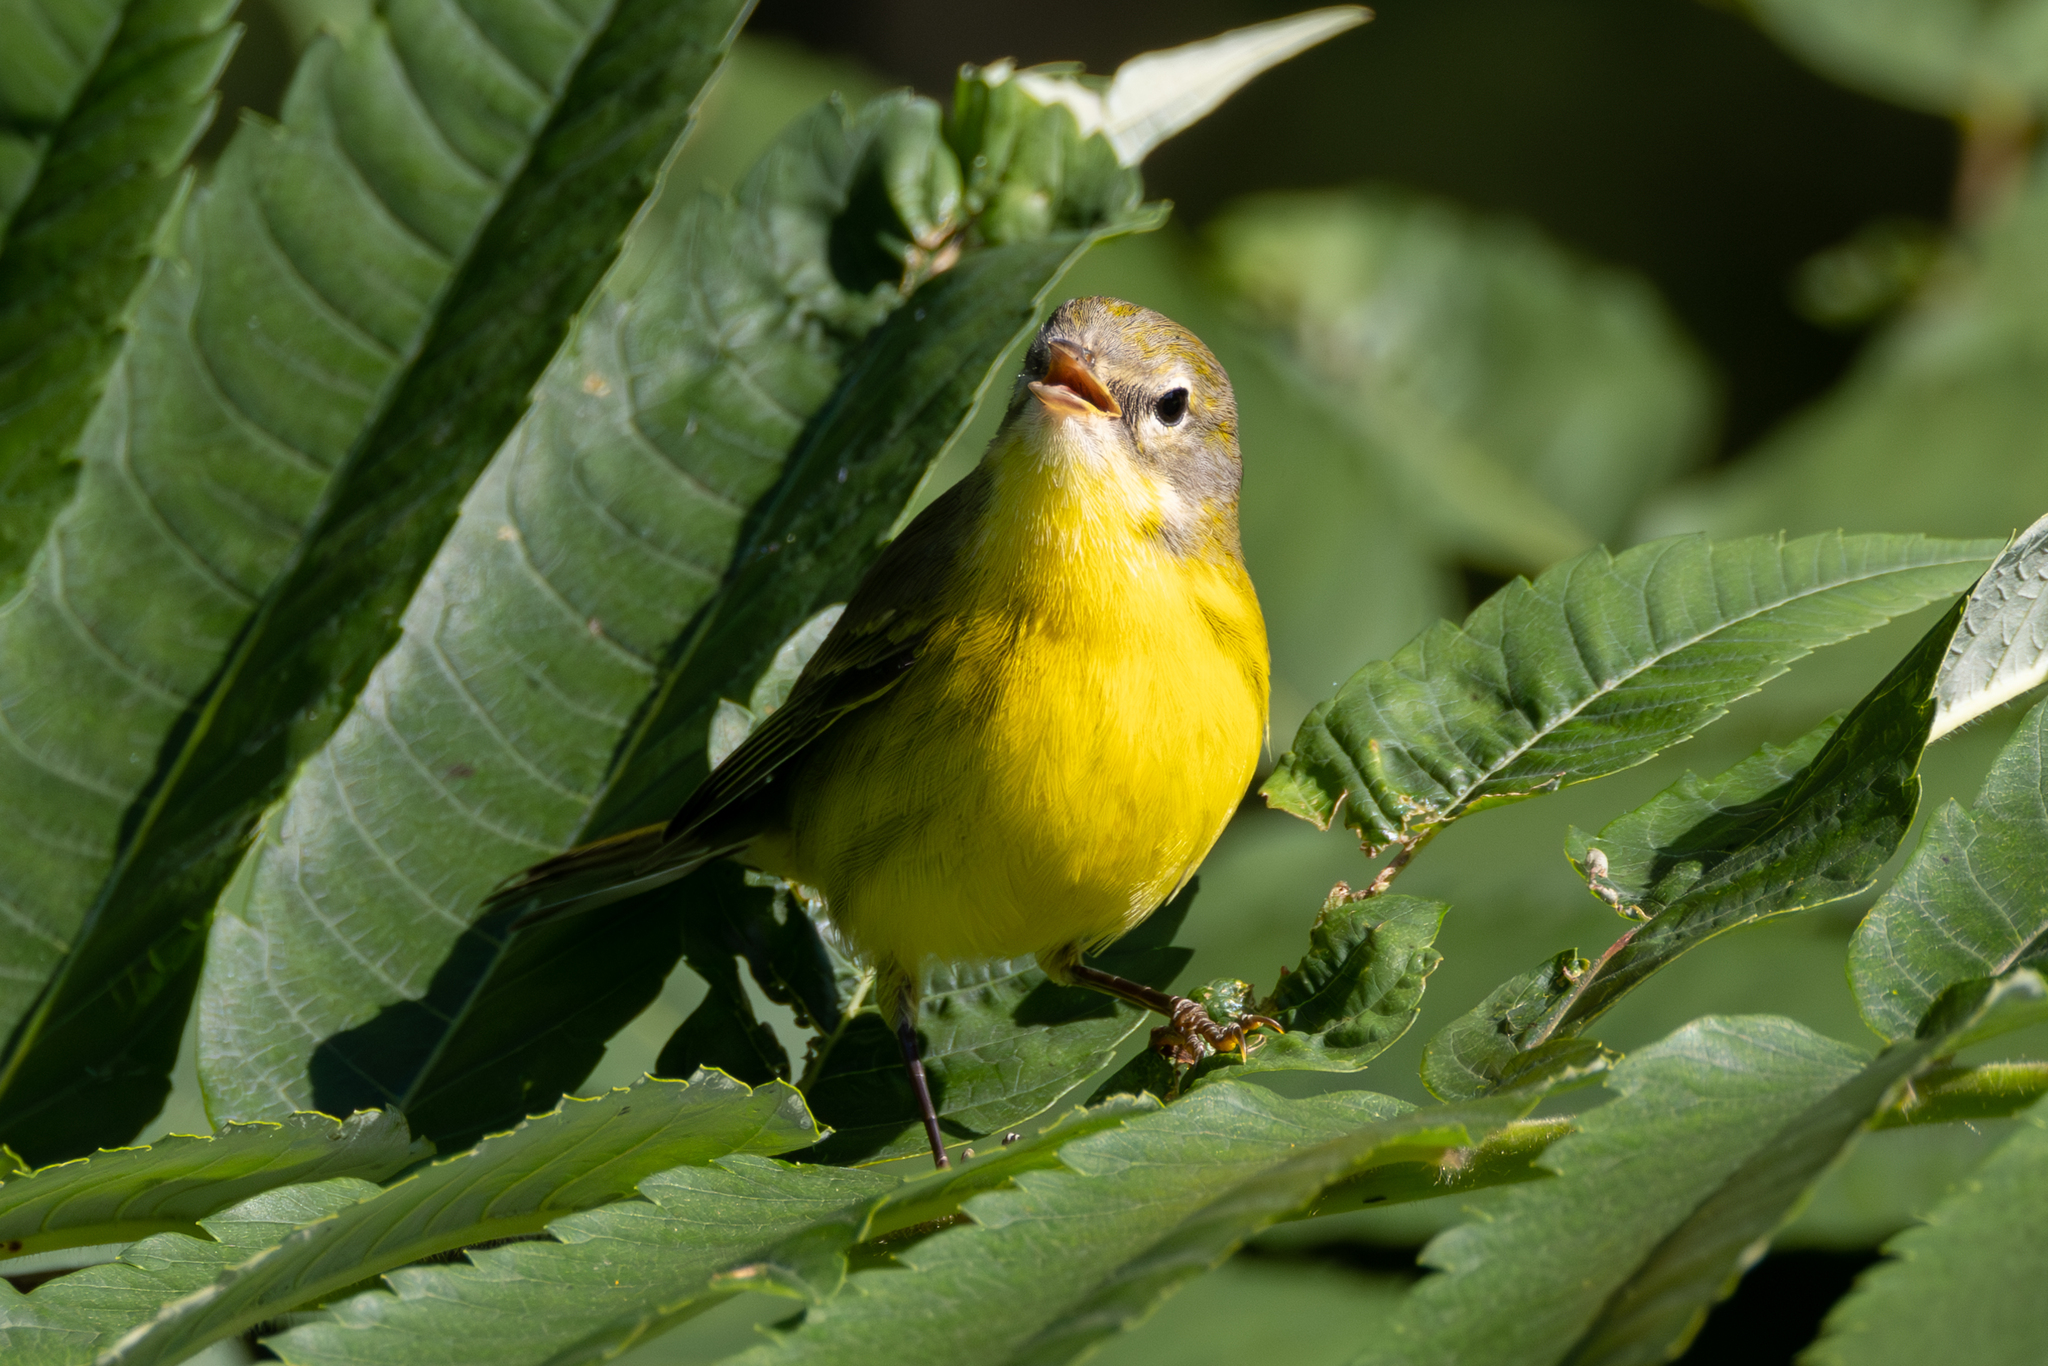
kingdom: Animalia
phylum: Chordata
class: Aves
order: Passeriformes
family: Parulidae
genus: Setophaga
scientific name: Setophaga discolor
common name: Prairie warbler
